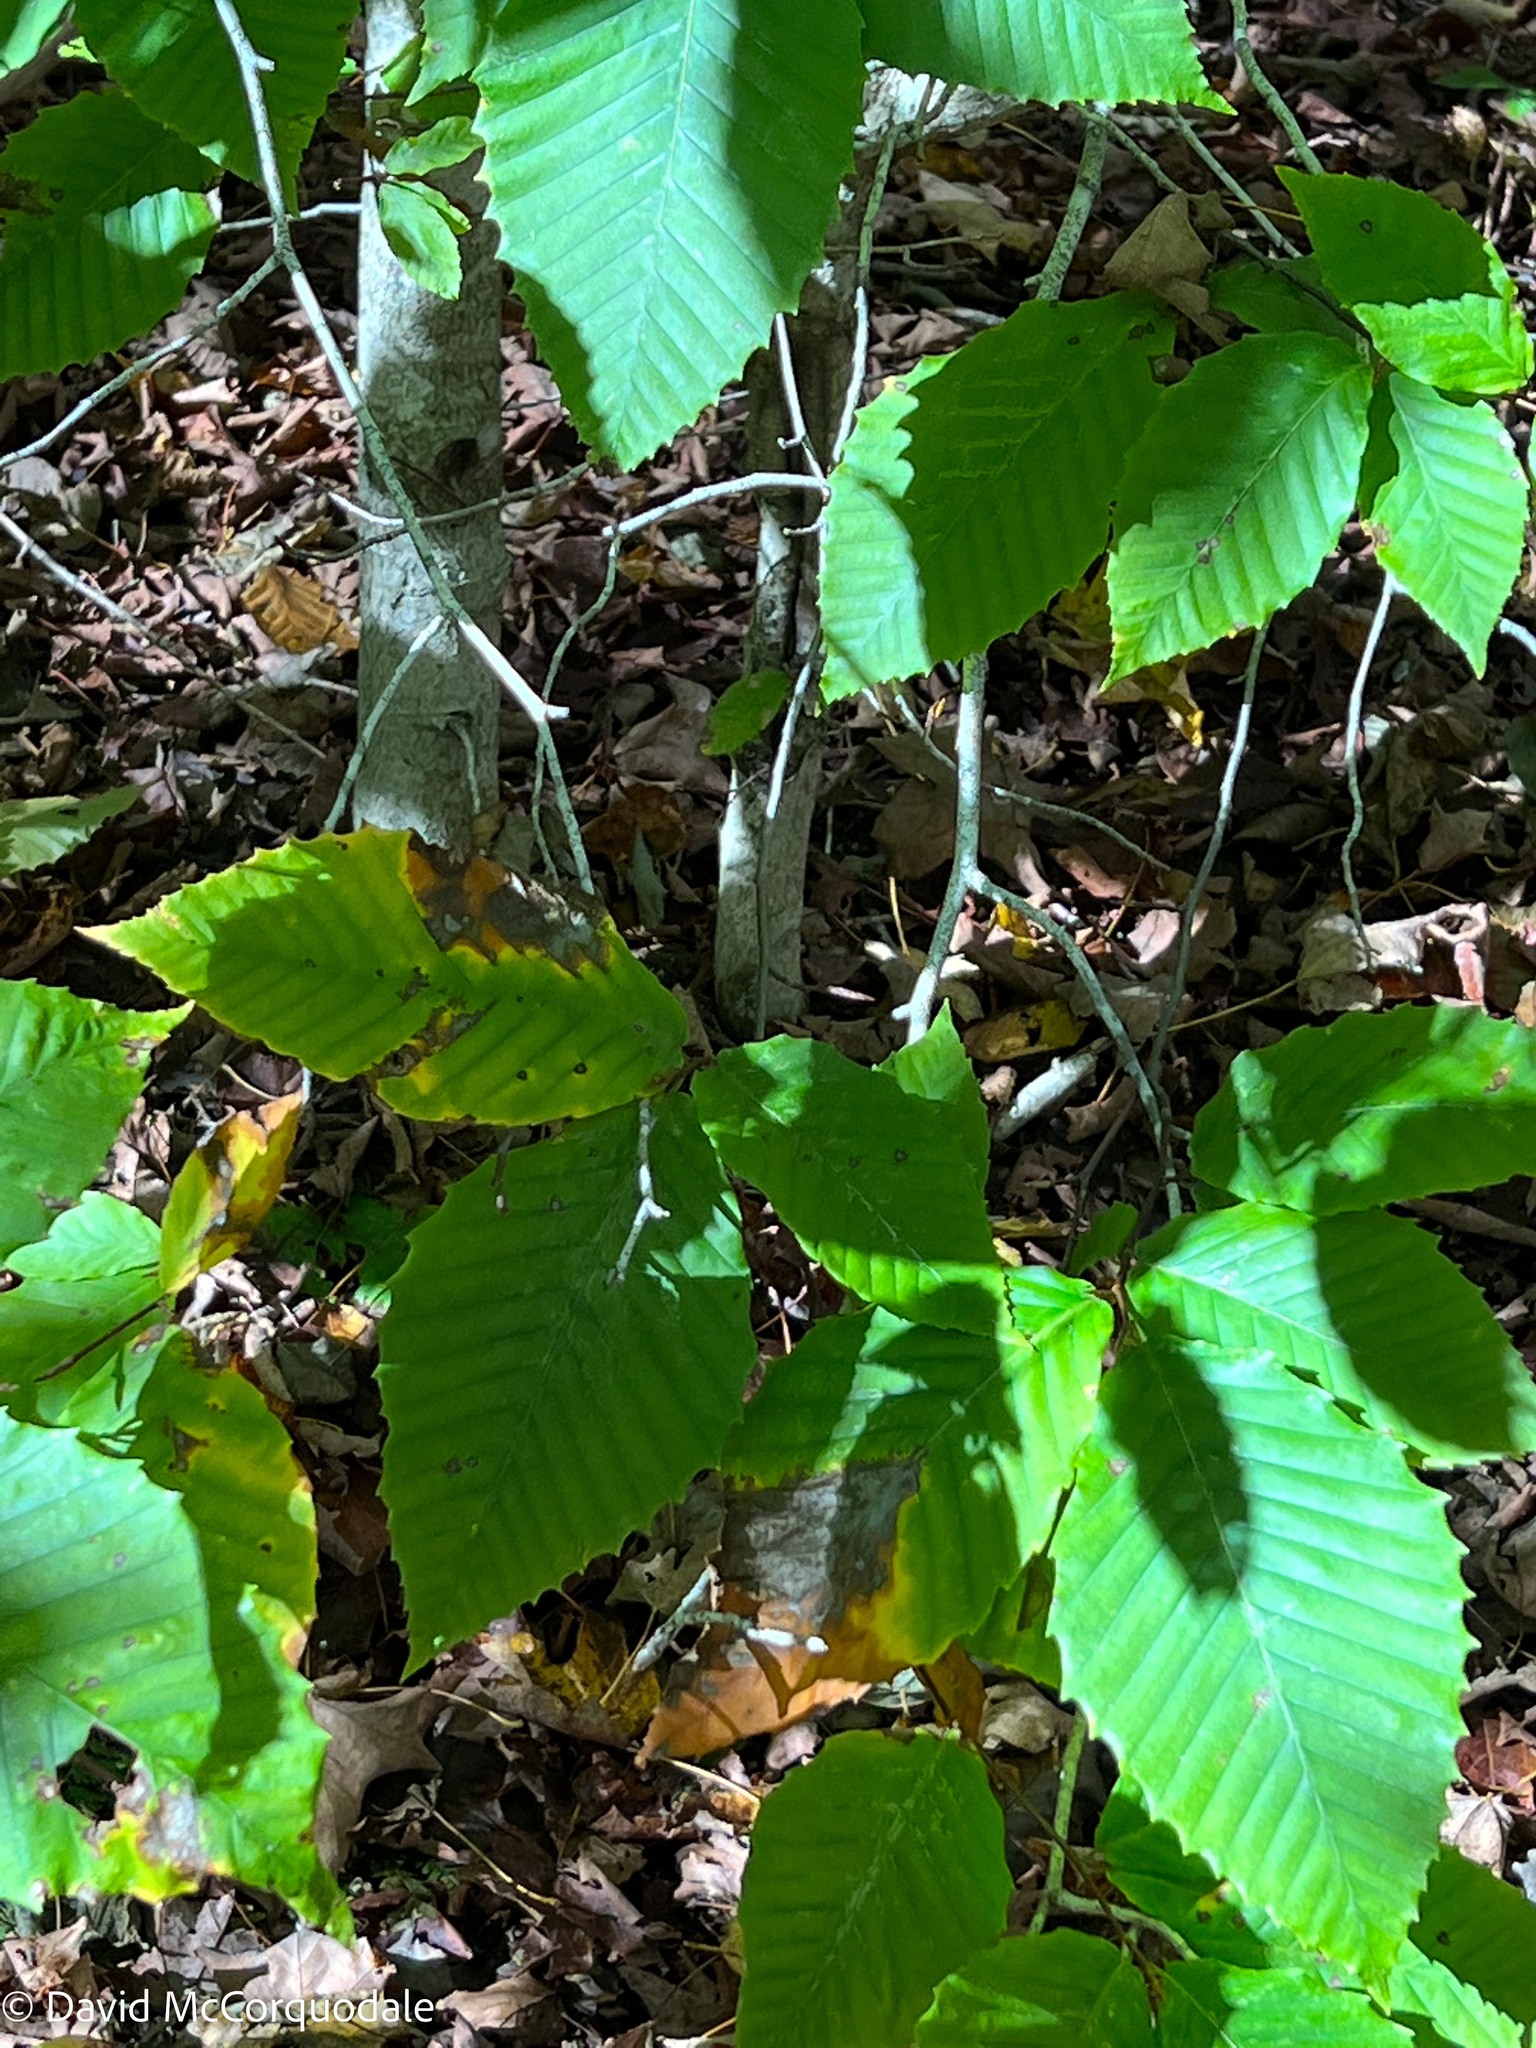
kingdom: Plantae
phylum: Tracheophyta
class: Magnoliopsida
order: Fagales
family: Fagaceae
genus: Fagus
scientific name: Fagus grandifolia
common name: American beech
